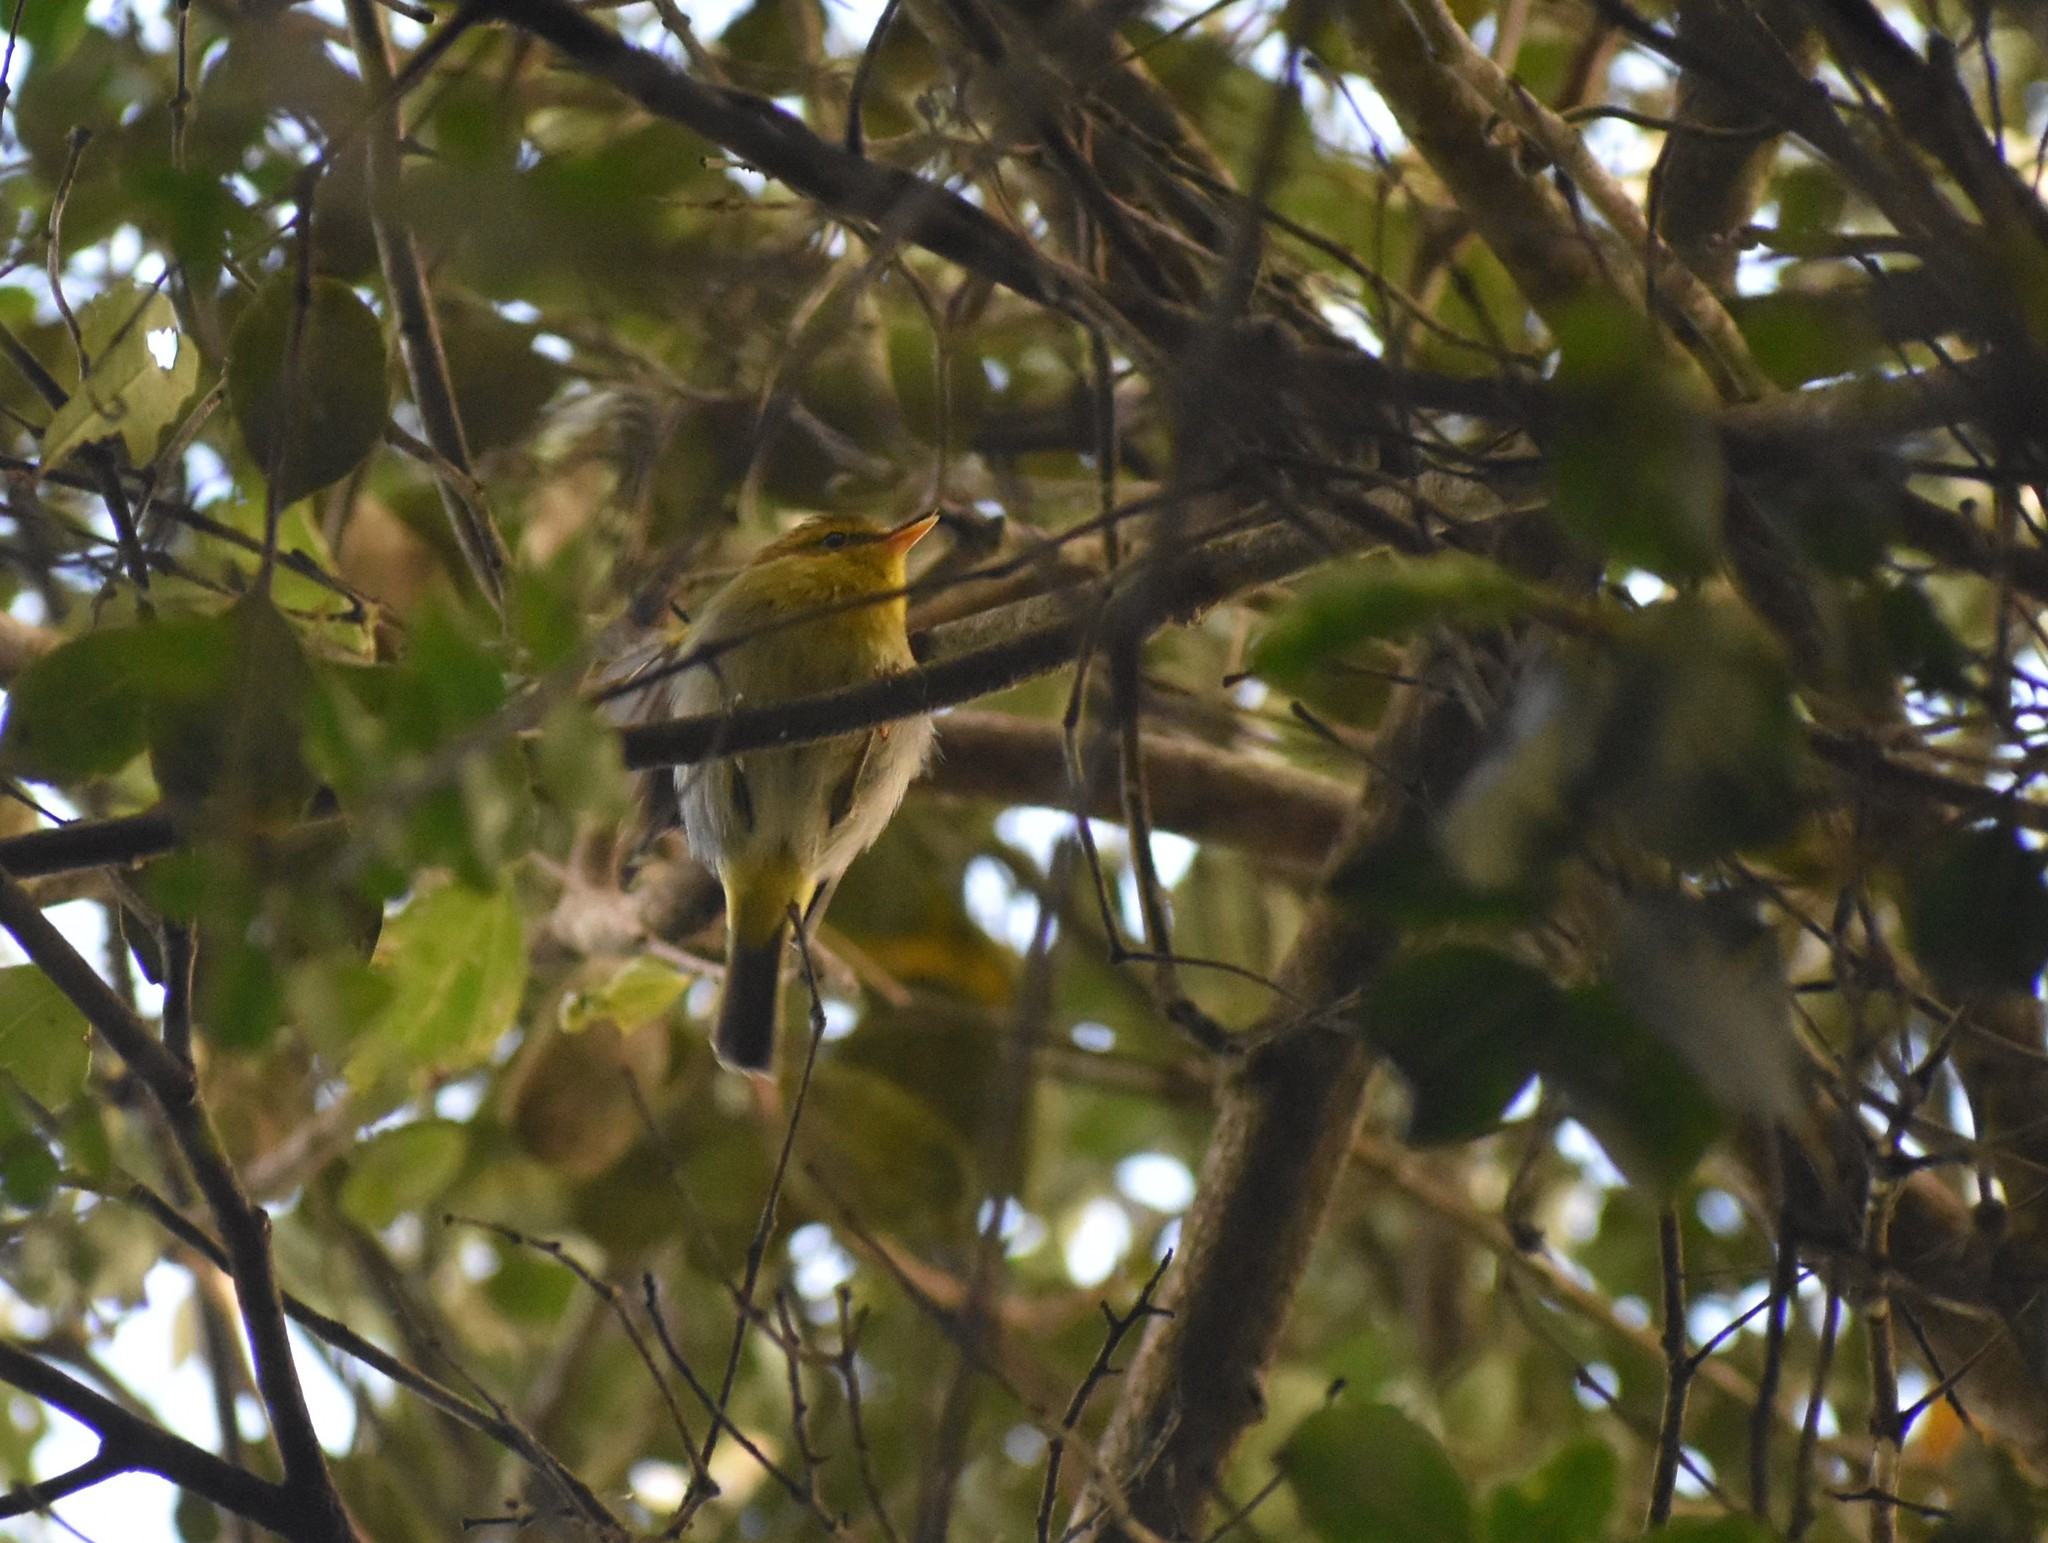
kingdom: Animalia
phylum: Chordata
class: Aves
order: Passeriformes
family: Phylloscopidae
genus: Phylloscopus
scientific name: Phylloscopus ruficapilla
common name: Yellow-throated woodland warbler
